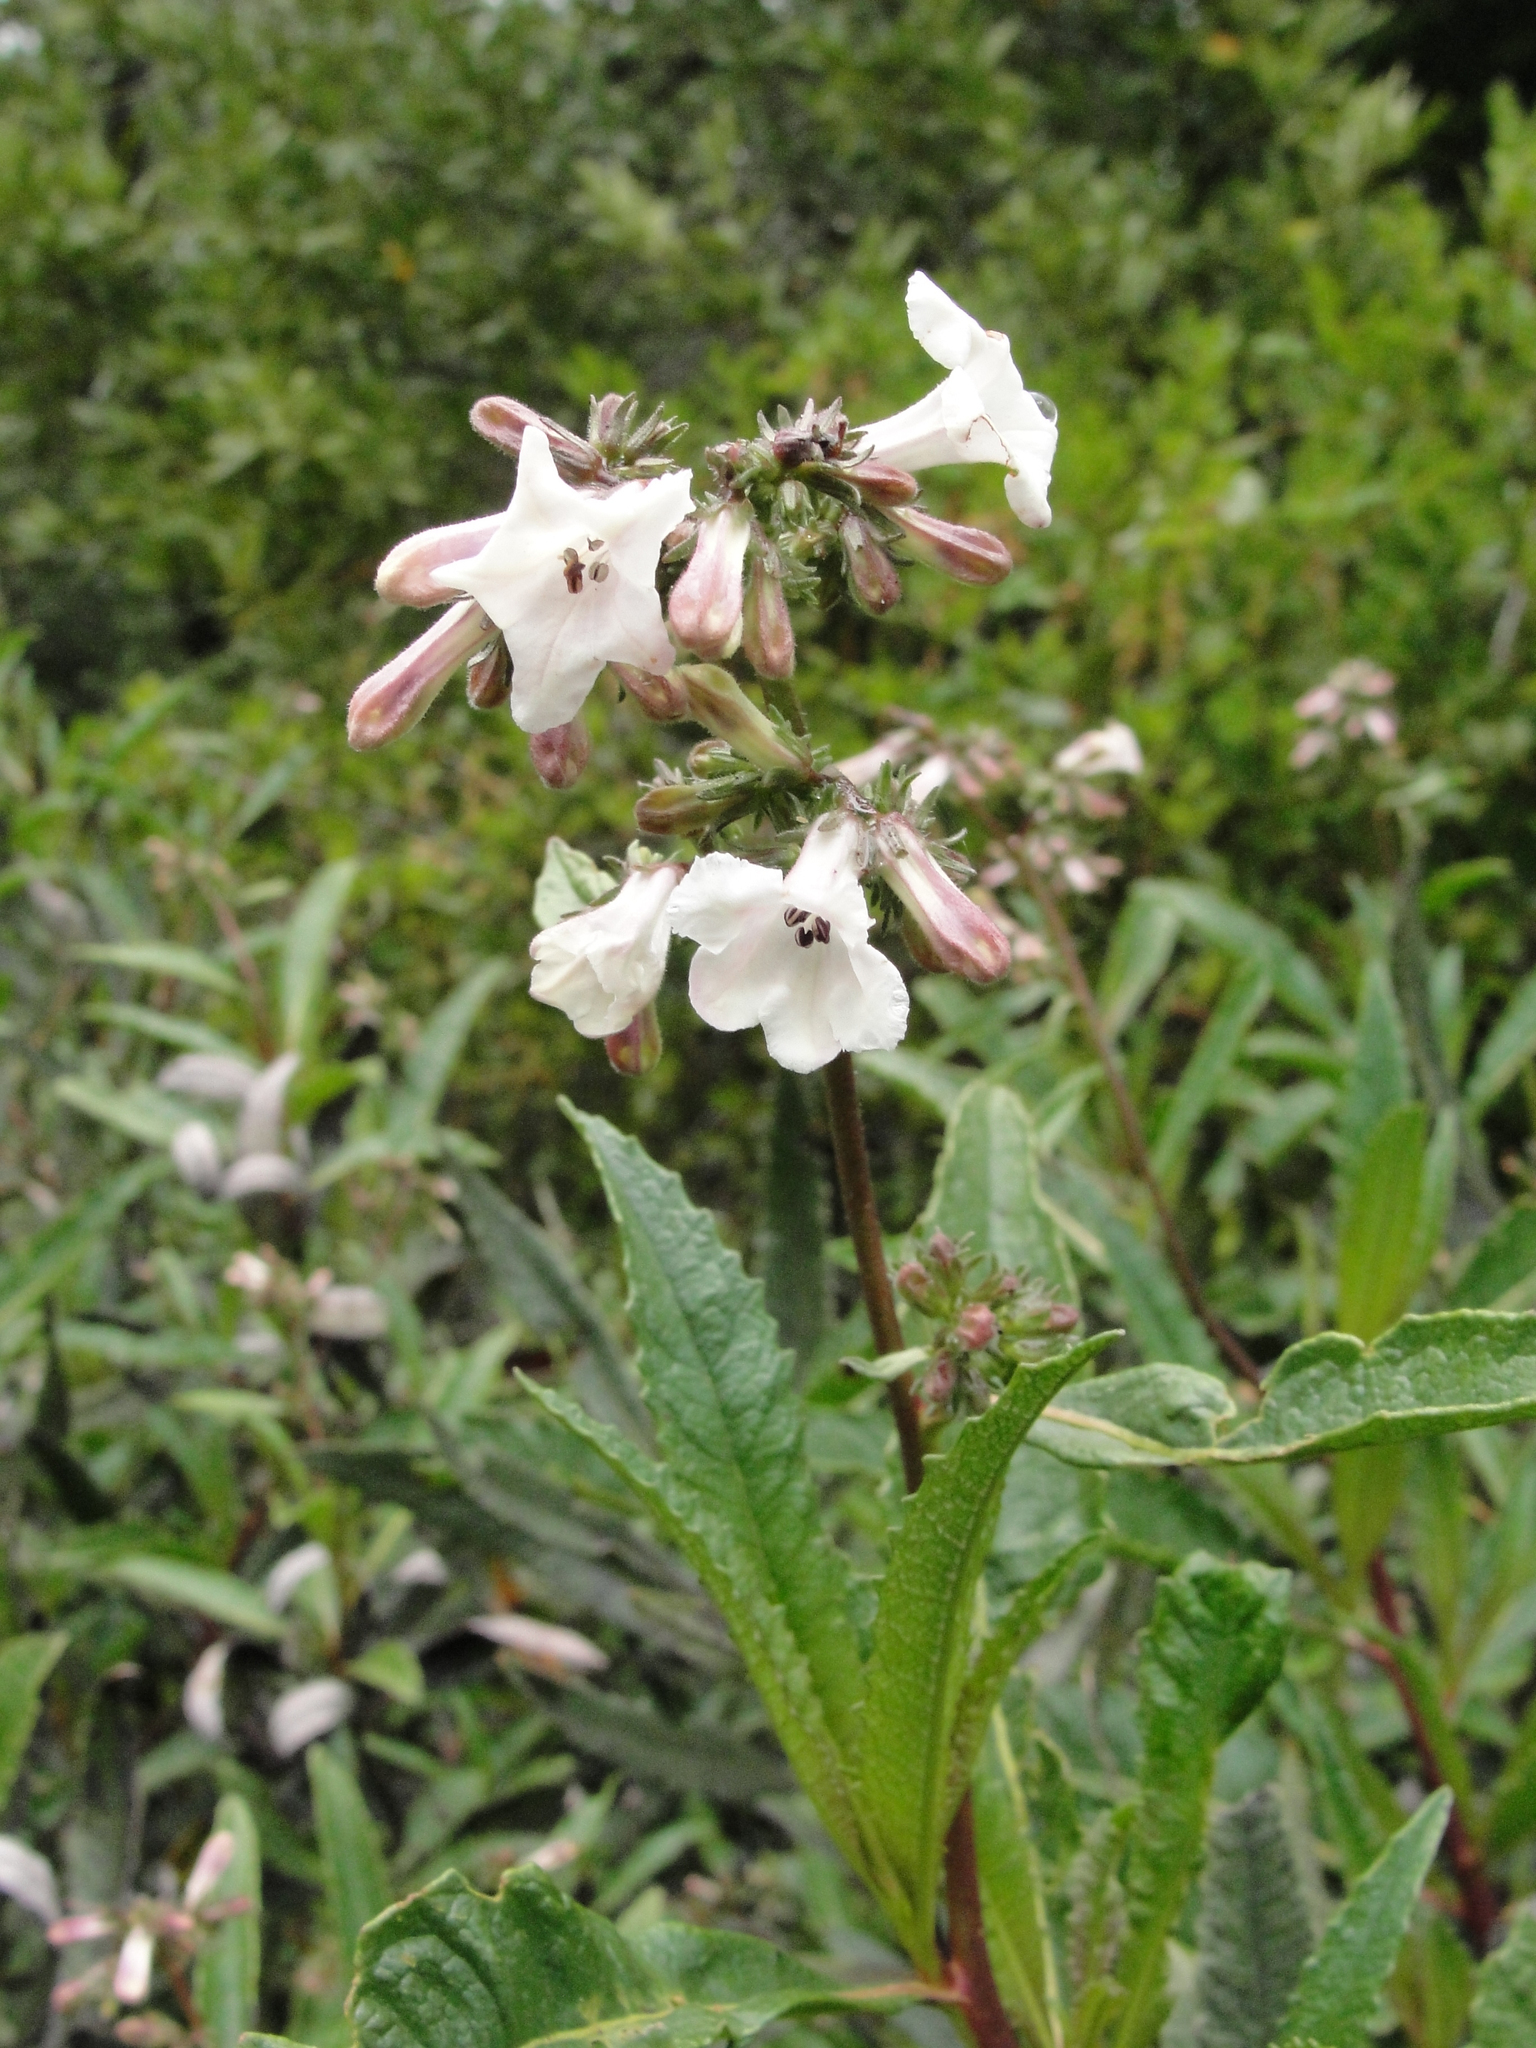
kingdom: Plantae
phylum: Tracheophyta
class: Magnoliopsida
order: Boraginales
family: Namaceae
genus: Eriodictyon
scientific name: Eriodictyon californicum
